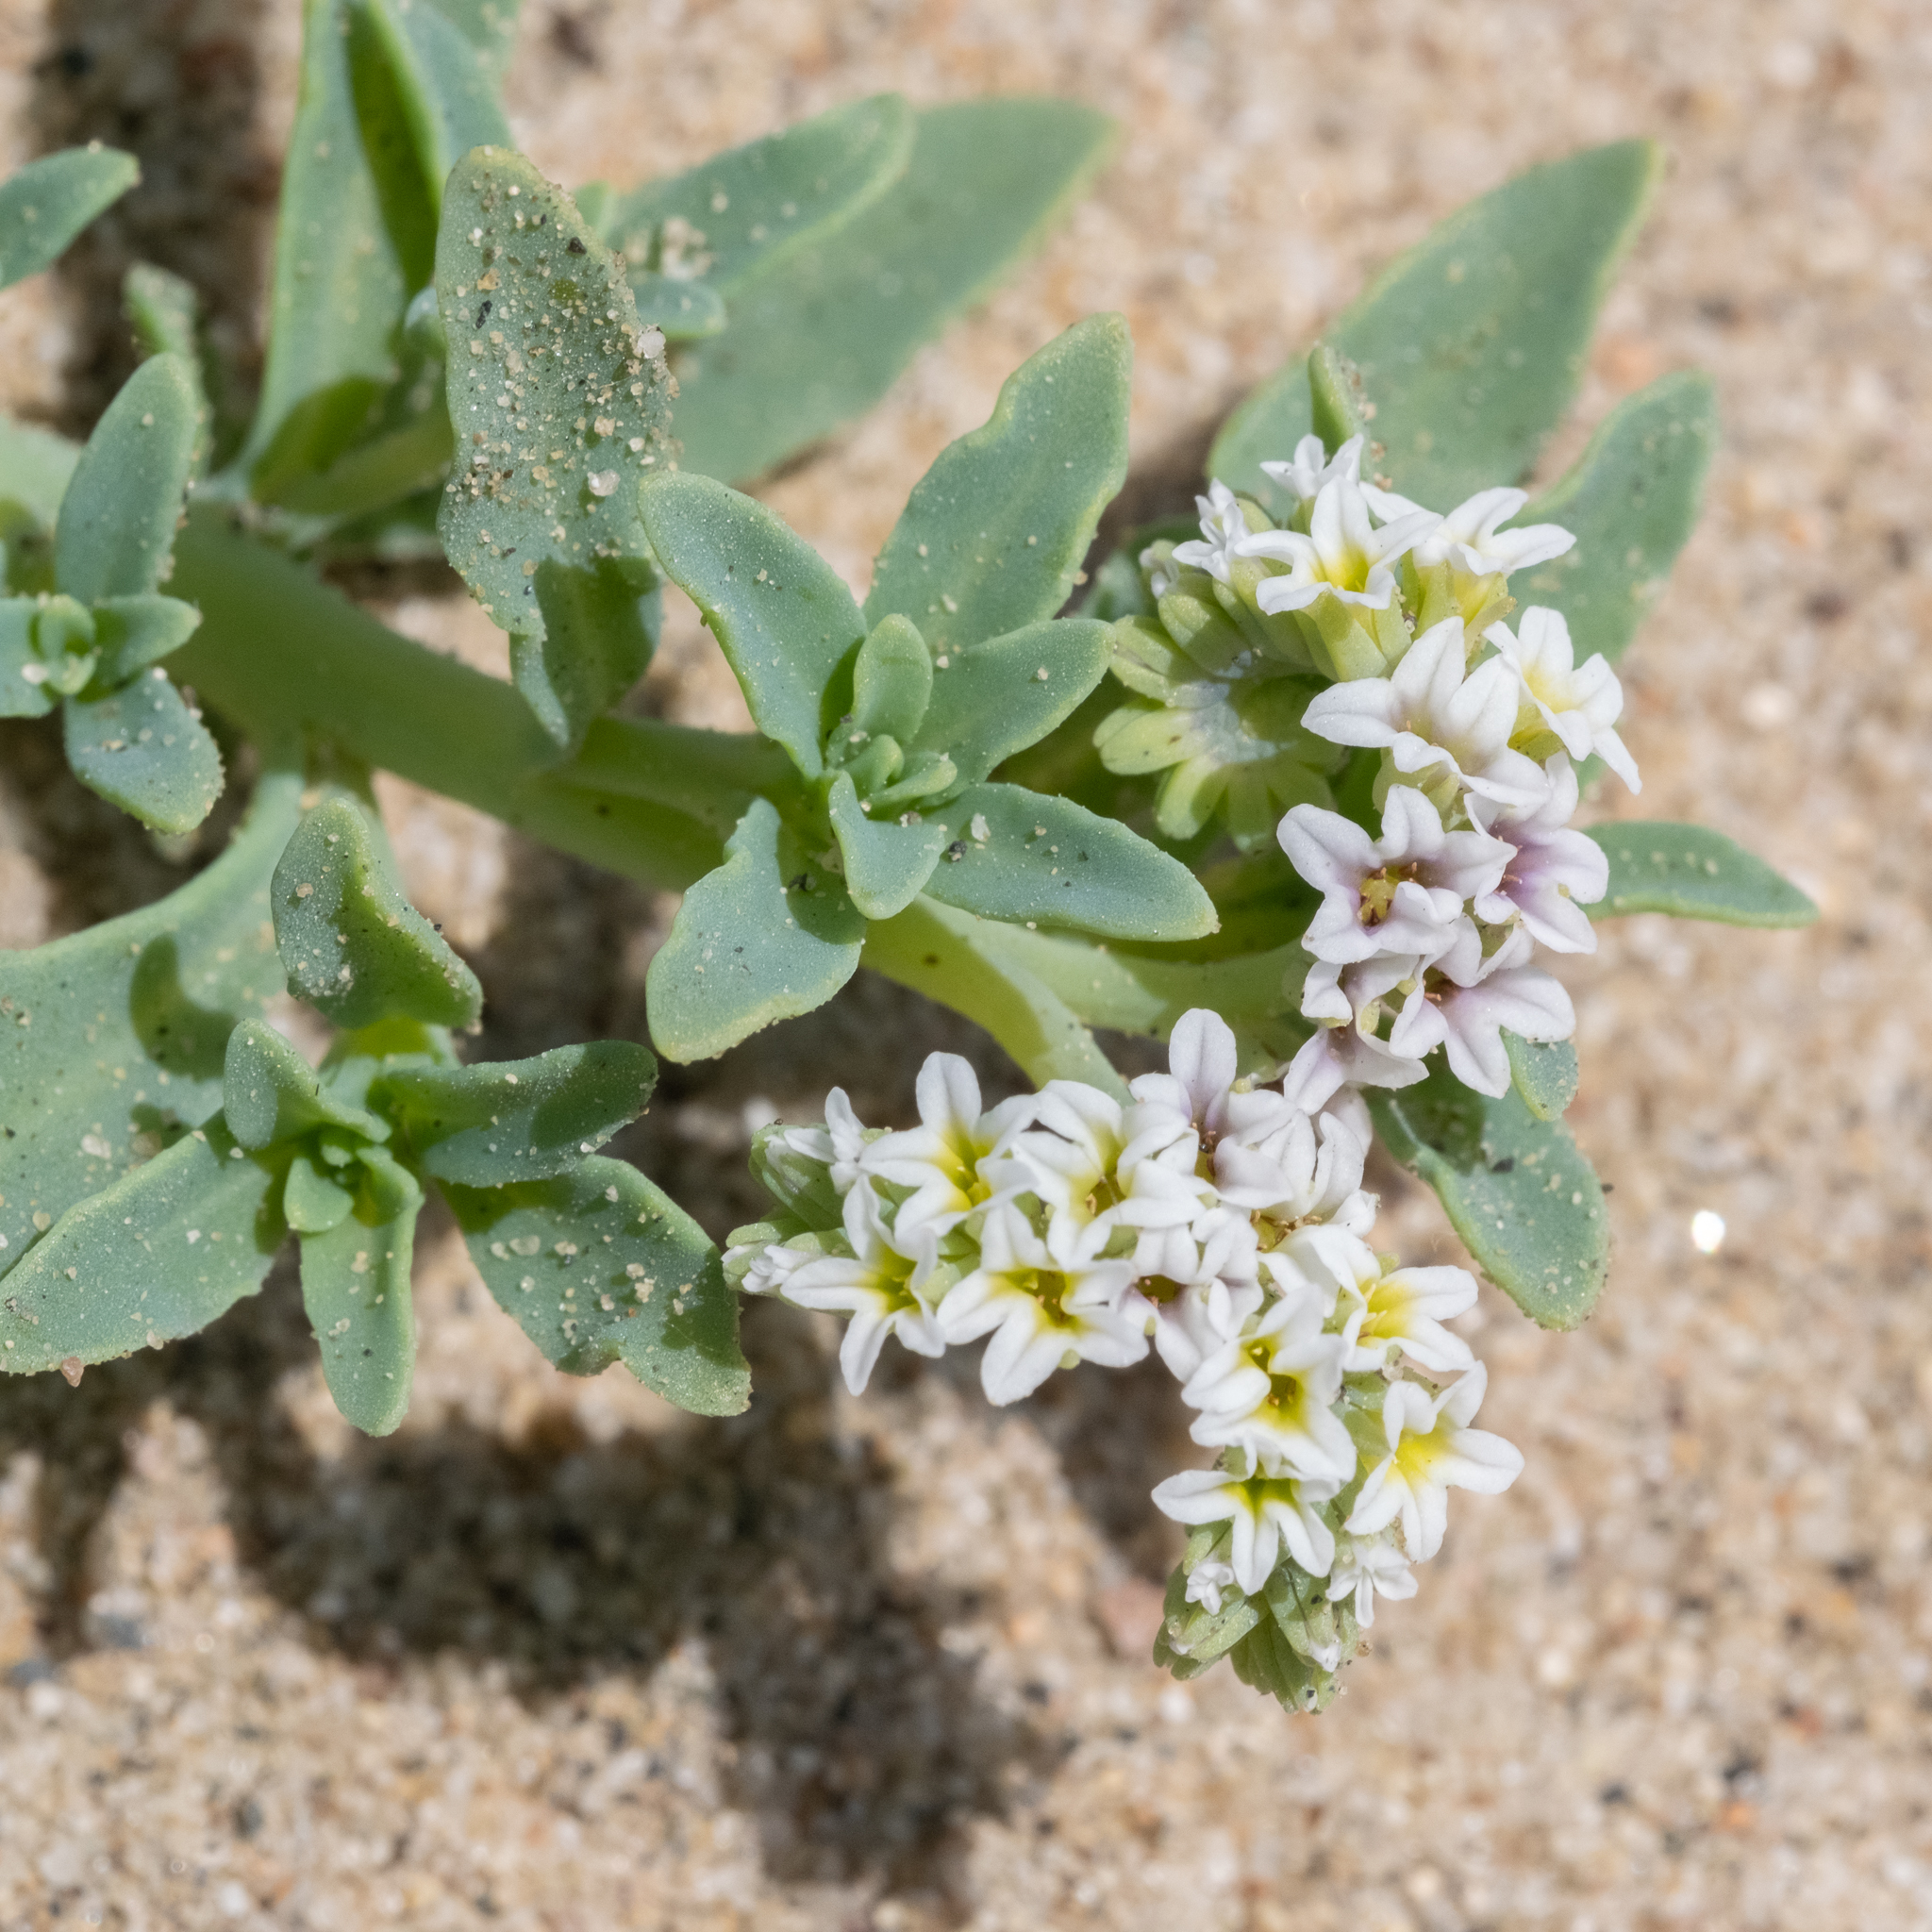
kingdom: Plantae
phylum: Tracheophyta
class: Magnoliopsida
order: Boraginales
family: Heliotropiaceae
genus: Heliotropium
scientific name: Heliotropium curassavicum
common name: Seaside heliotrope
